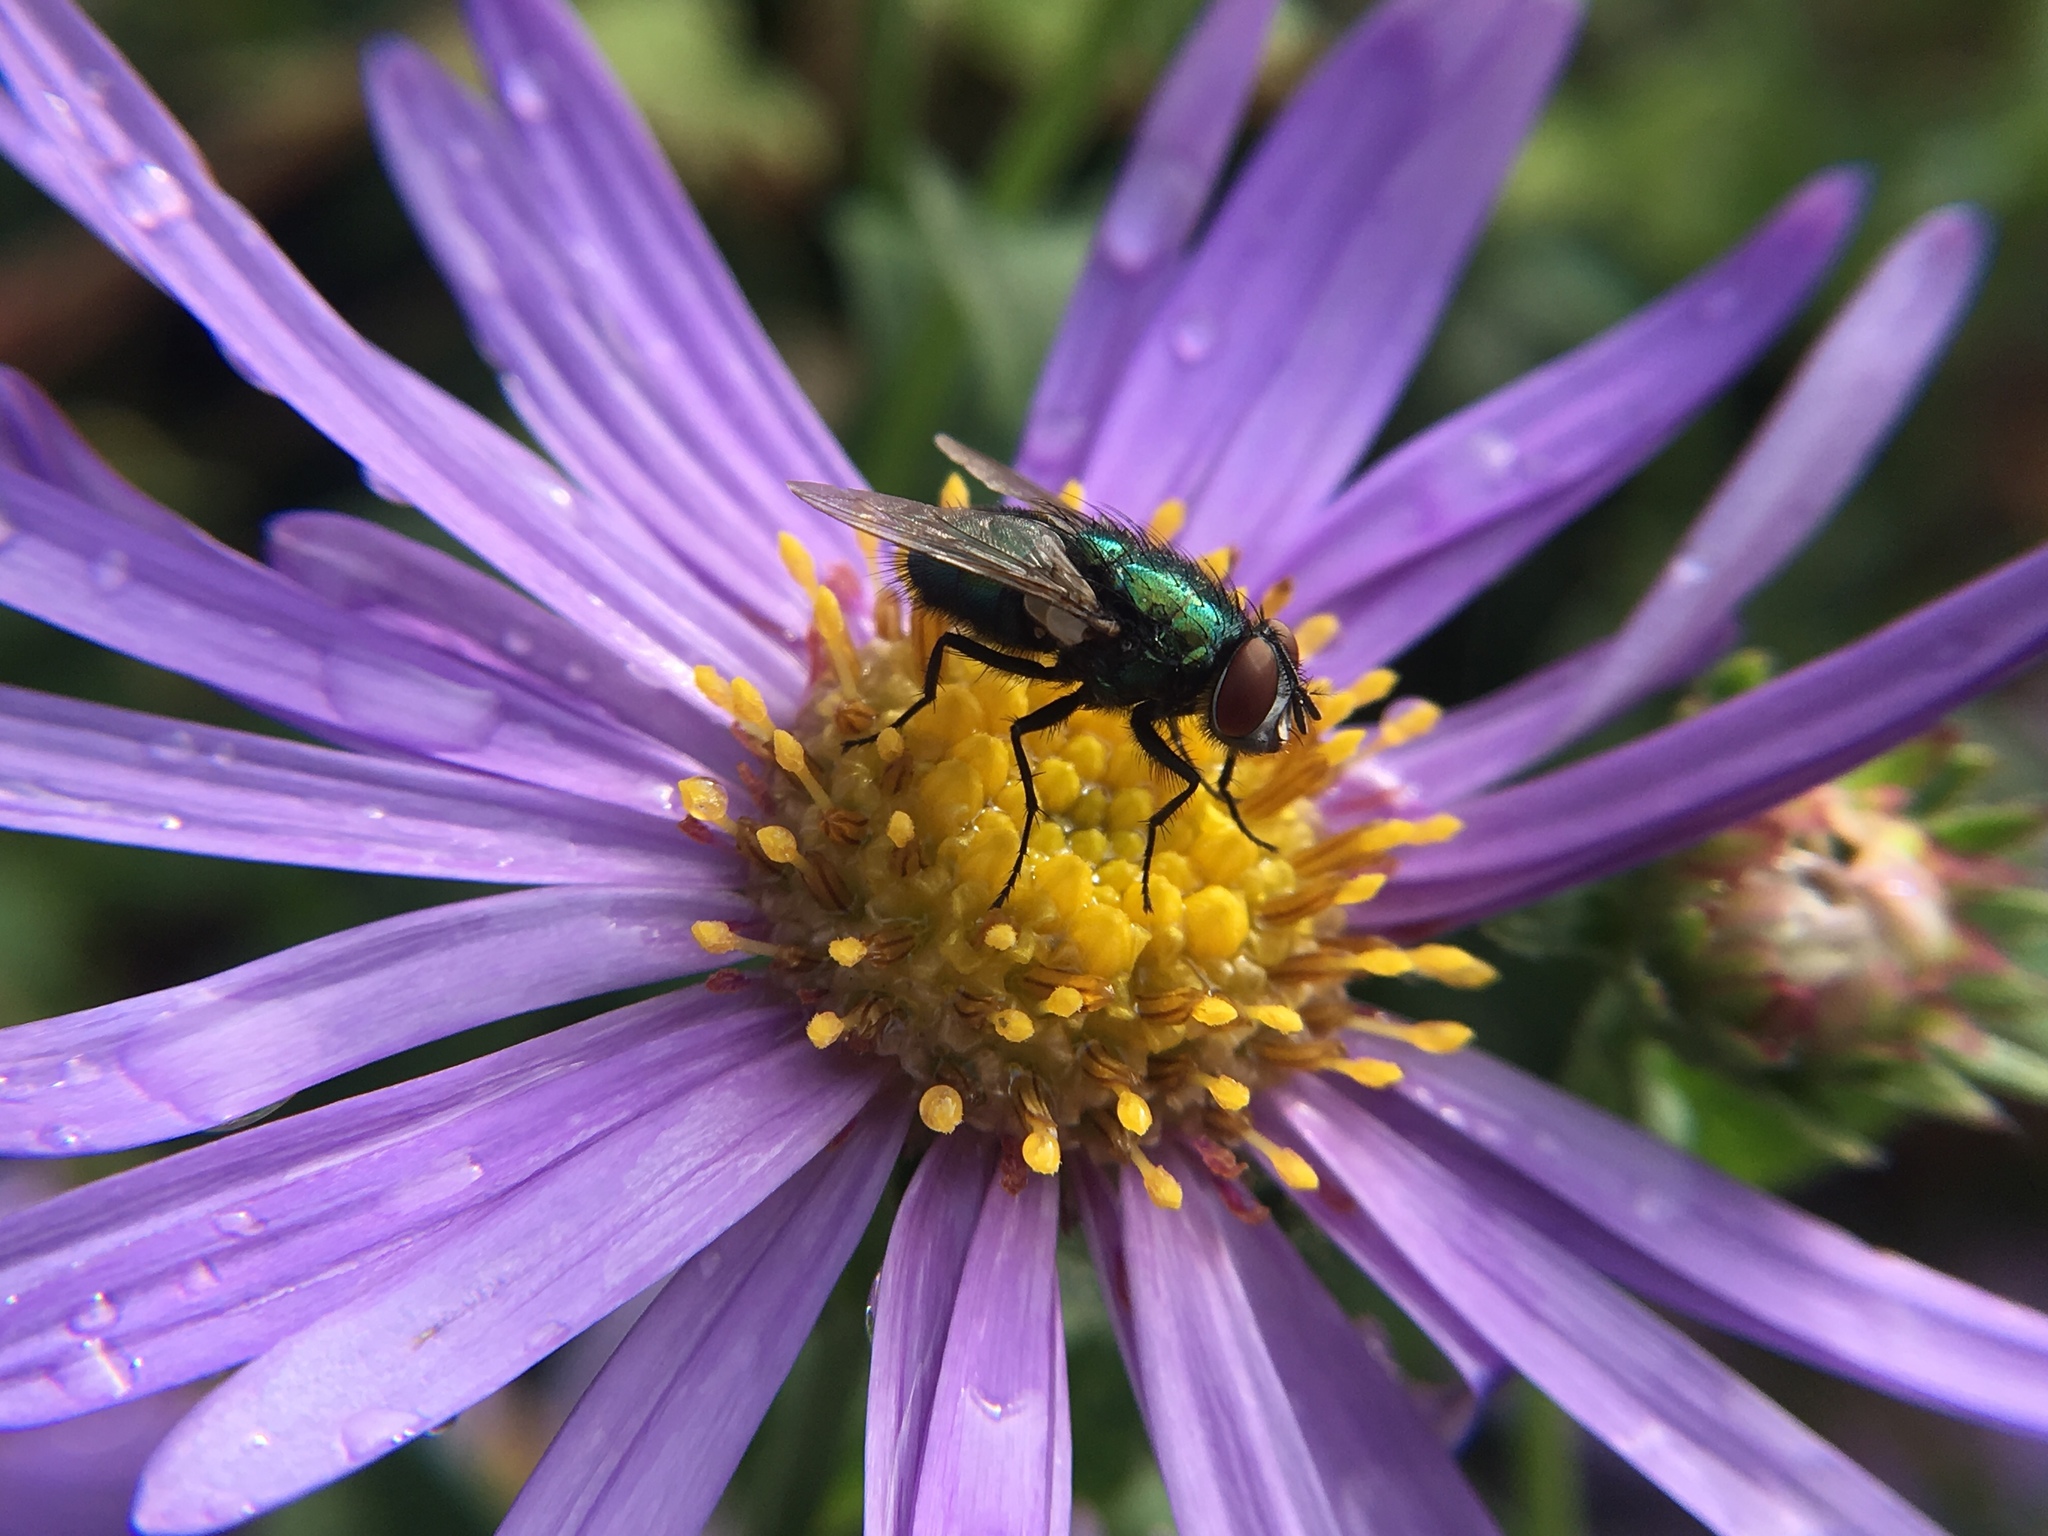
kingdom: Animalia
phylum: Arthropoda
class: Insecta
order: Diptera
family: Calliphoridae
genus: Lucilia
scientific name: Lucilia sericata
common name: Blow fly
